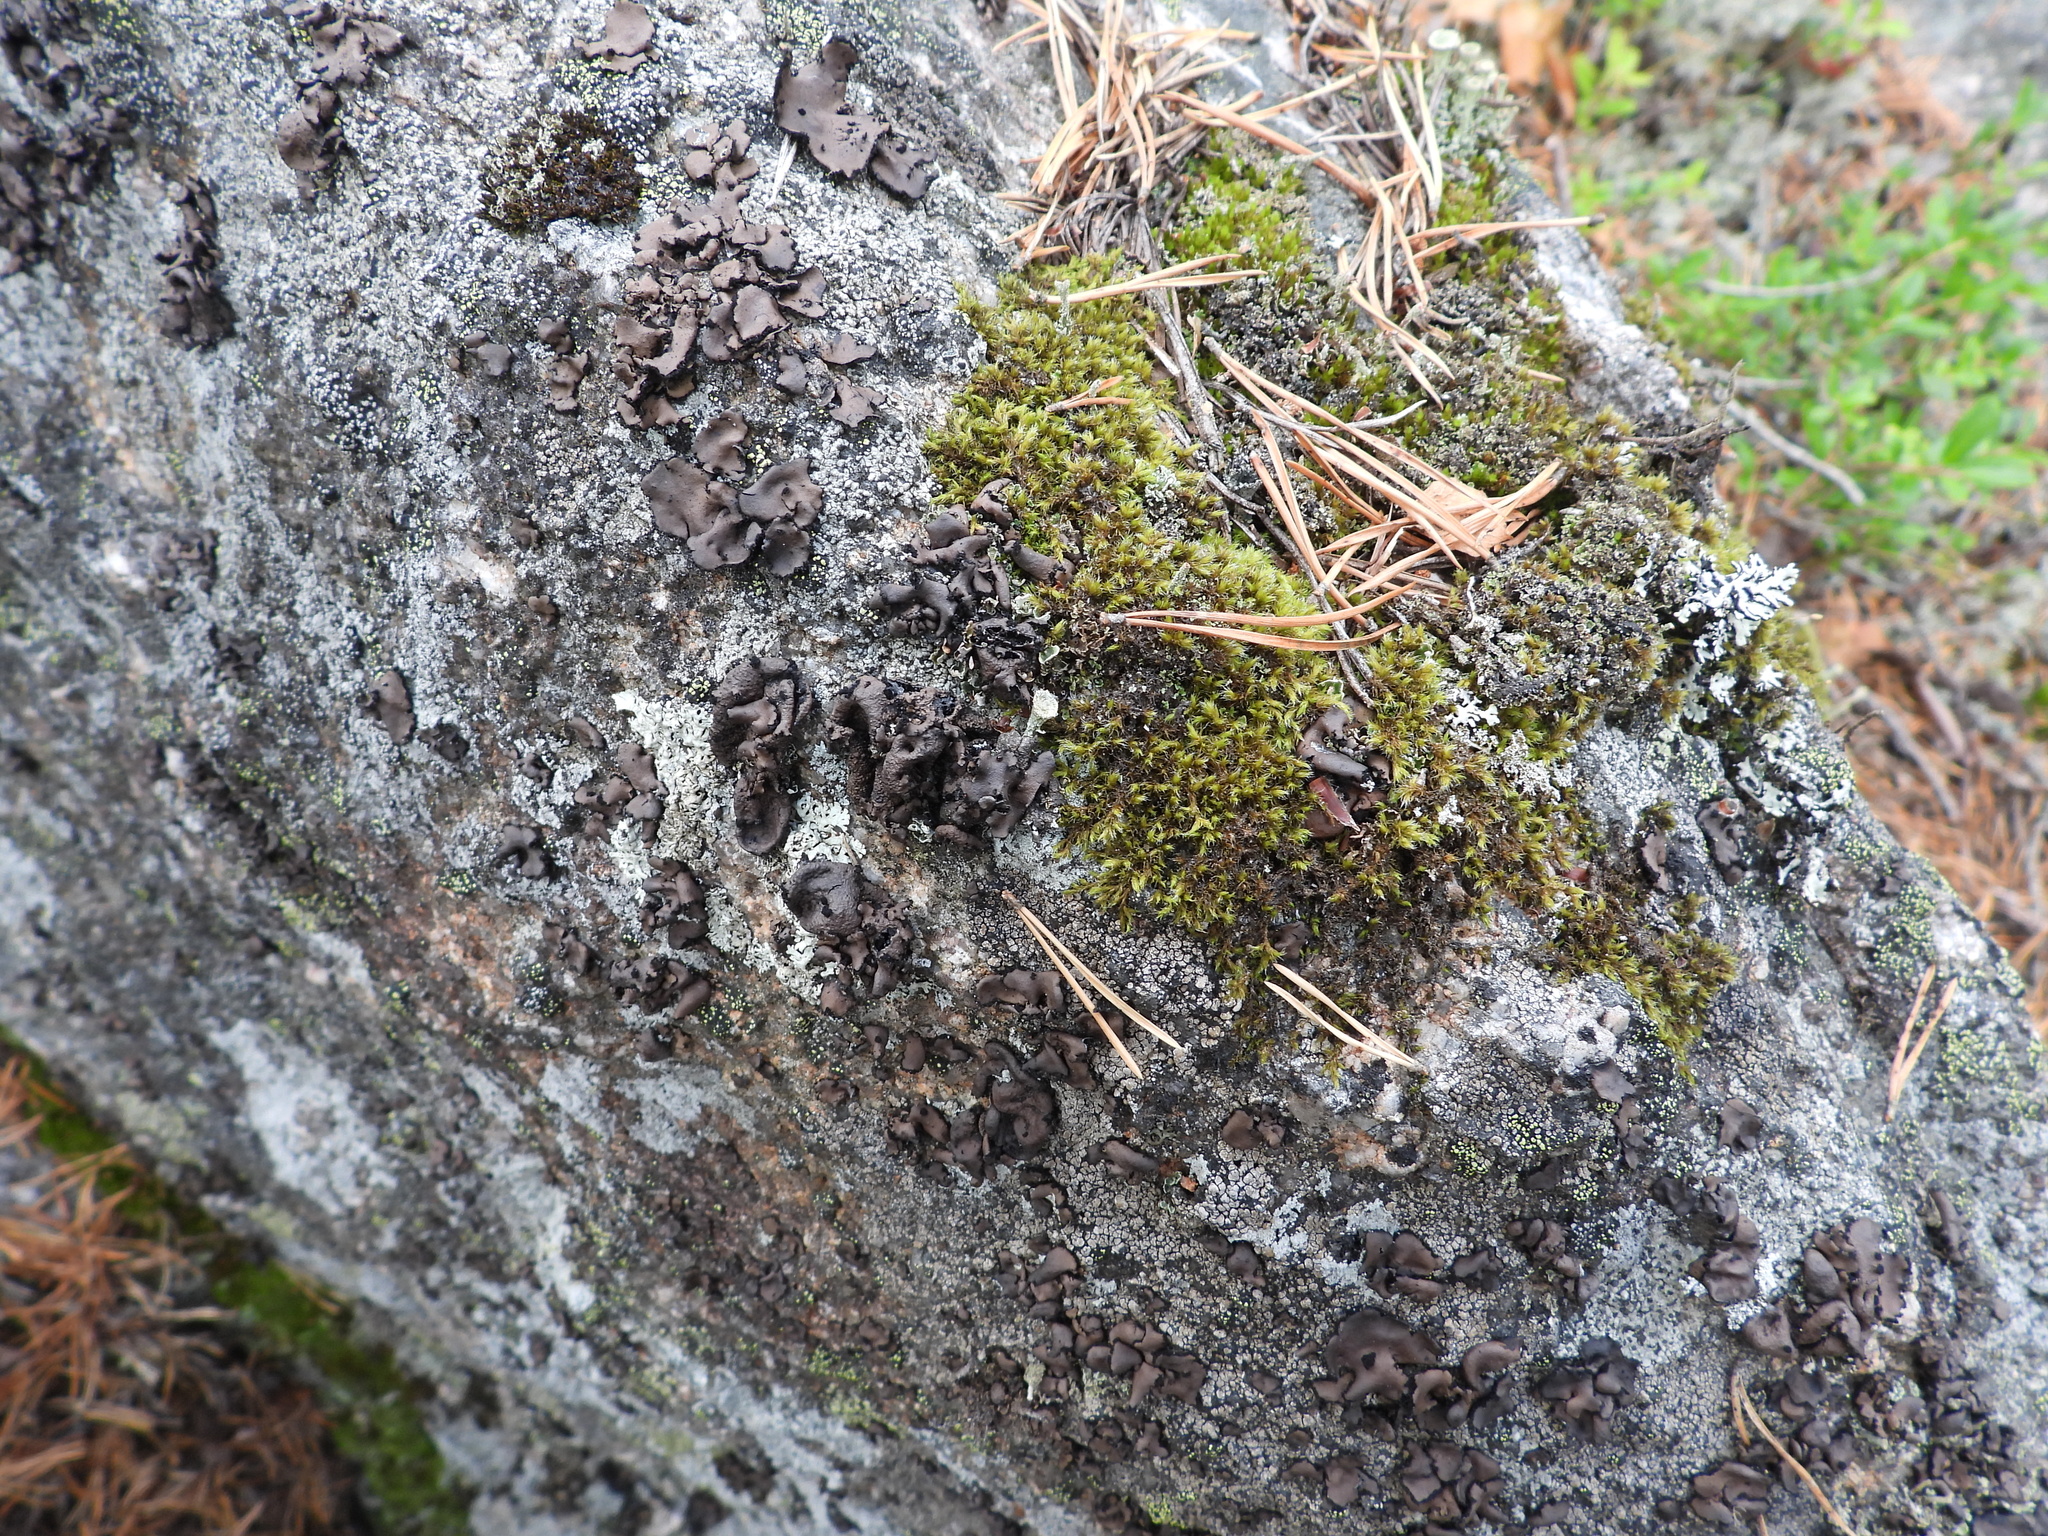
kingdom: Fungi
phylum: Ascomycota
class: Lecanoromycetes
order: Umbilicariales
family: Umbilicariaceae
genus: Umbilicaria
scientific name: Umbilicaria polyrrhiza
